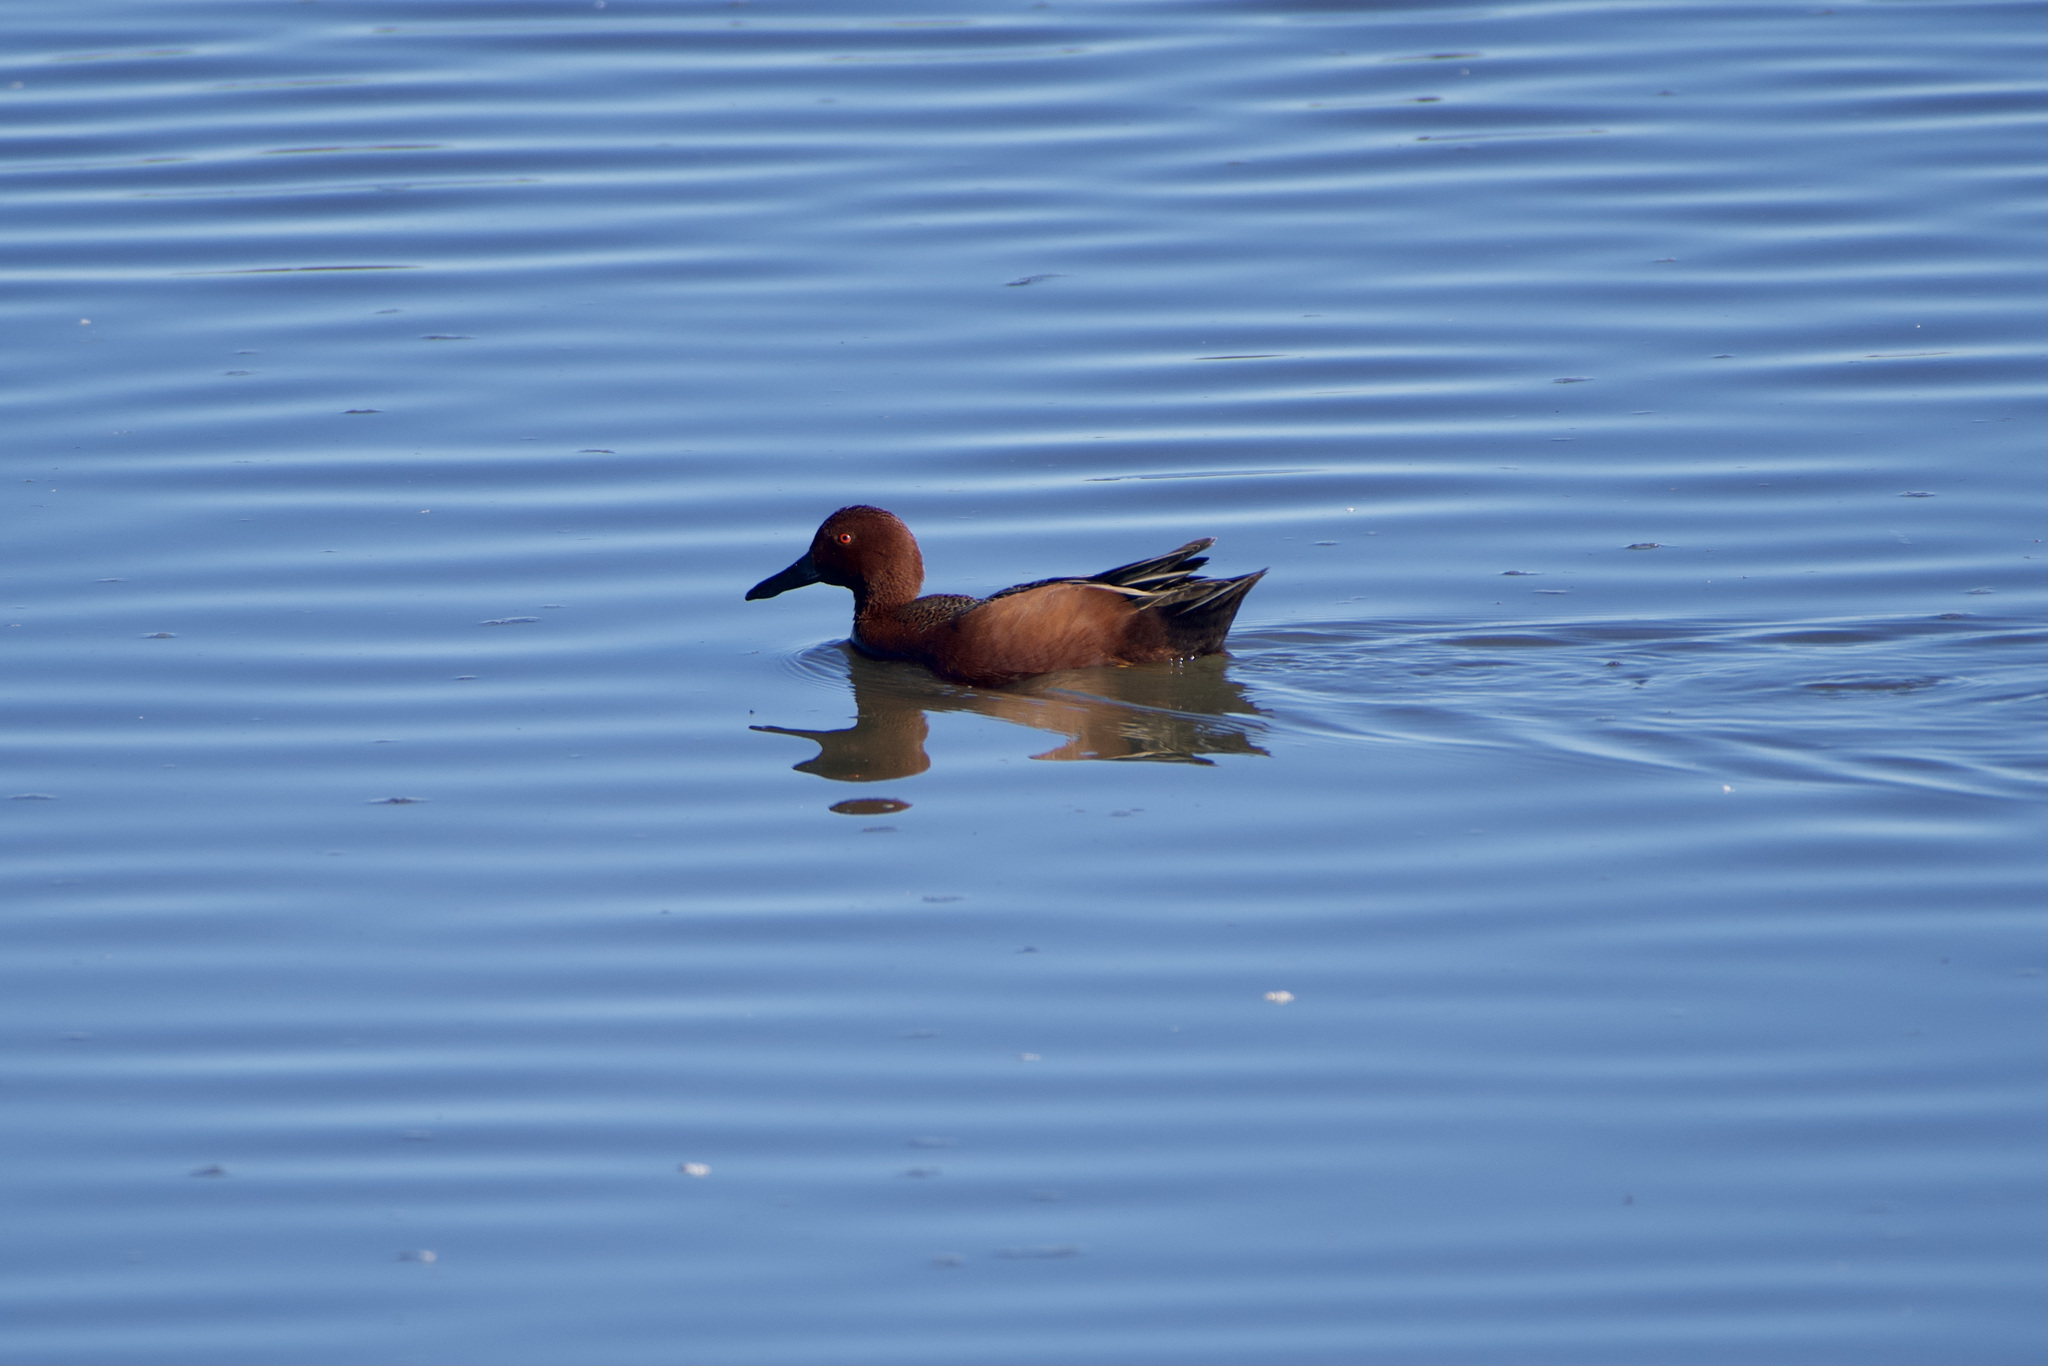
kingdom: Animalia
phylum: Chordata
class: Aves
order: Anseriformes
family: Anatidae
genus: Spatula
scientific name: Spatula cyanoptera
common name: Cinnamon teal
